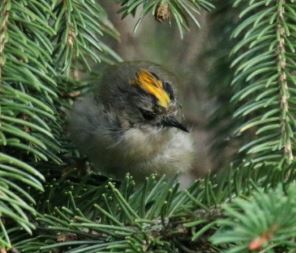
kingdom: Animalia
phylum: Chordata
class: Aves
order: Passeriformes
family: Regulidae
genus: Regulus
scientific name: Regulus regulus
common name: Goldcrest
